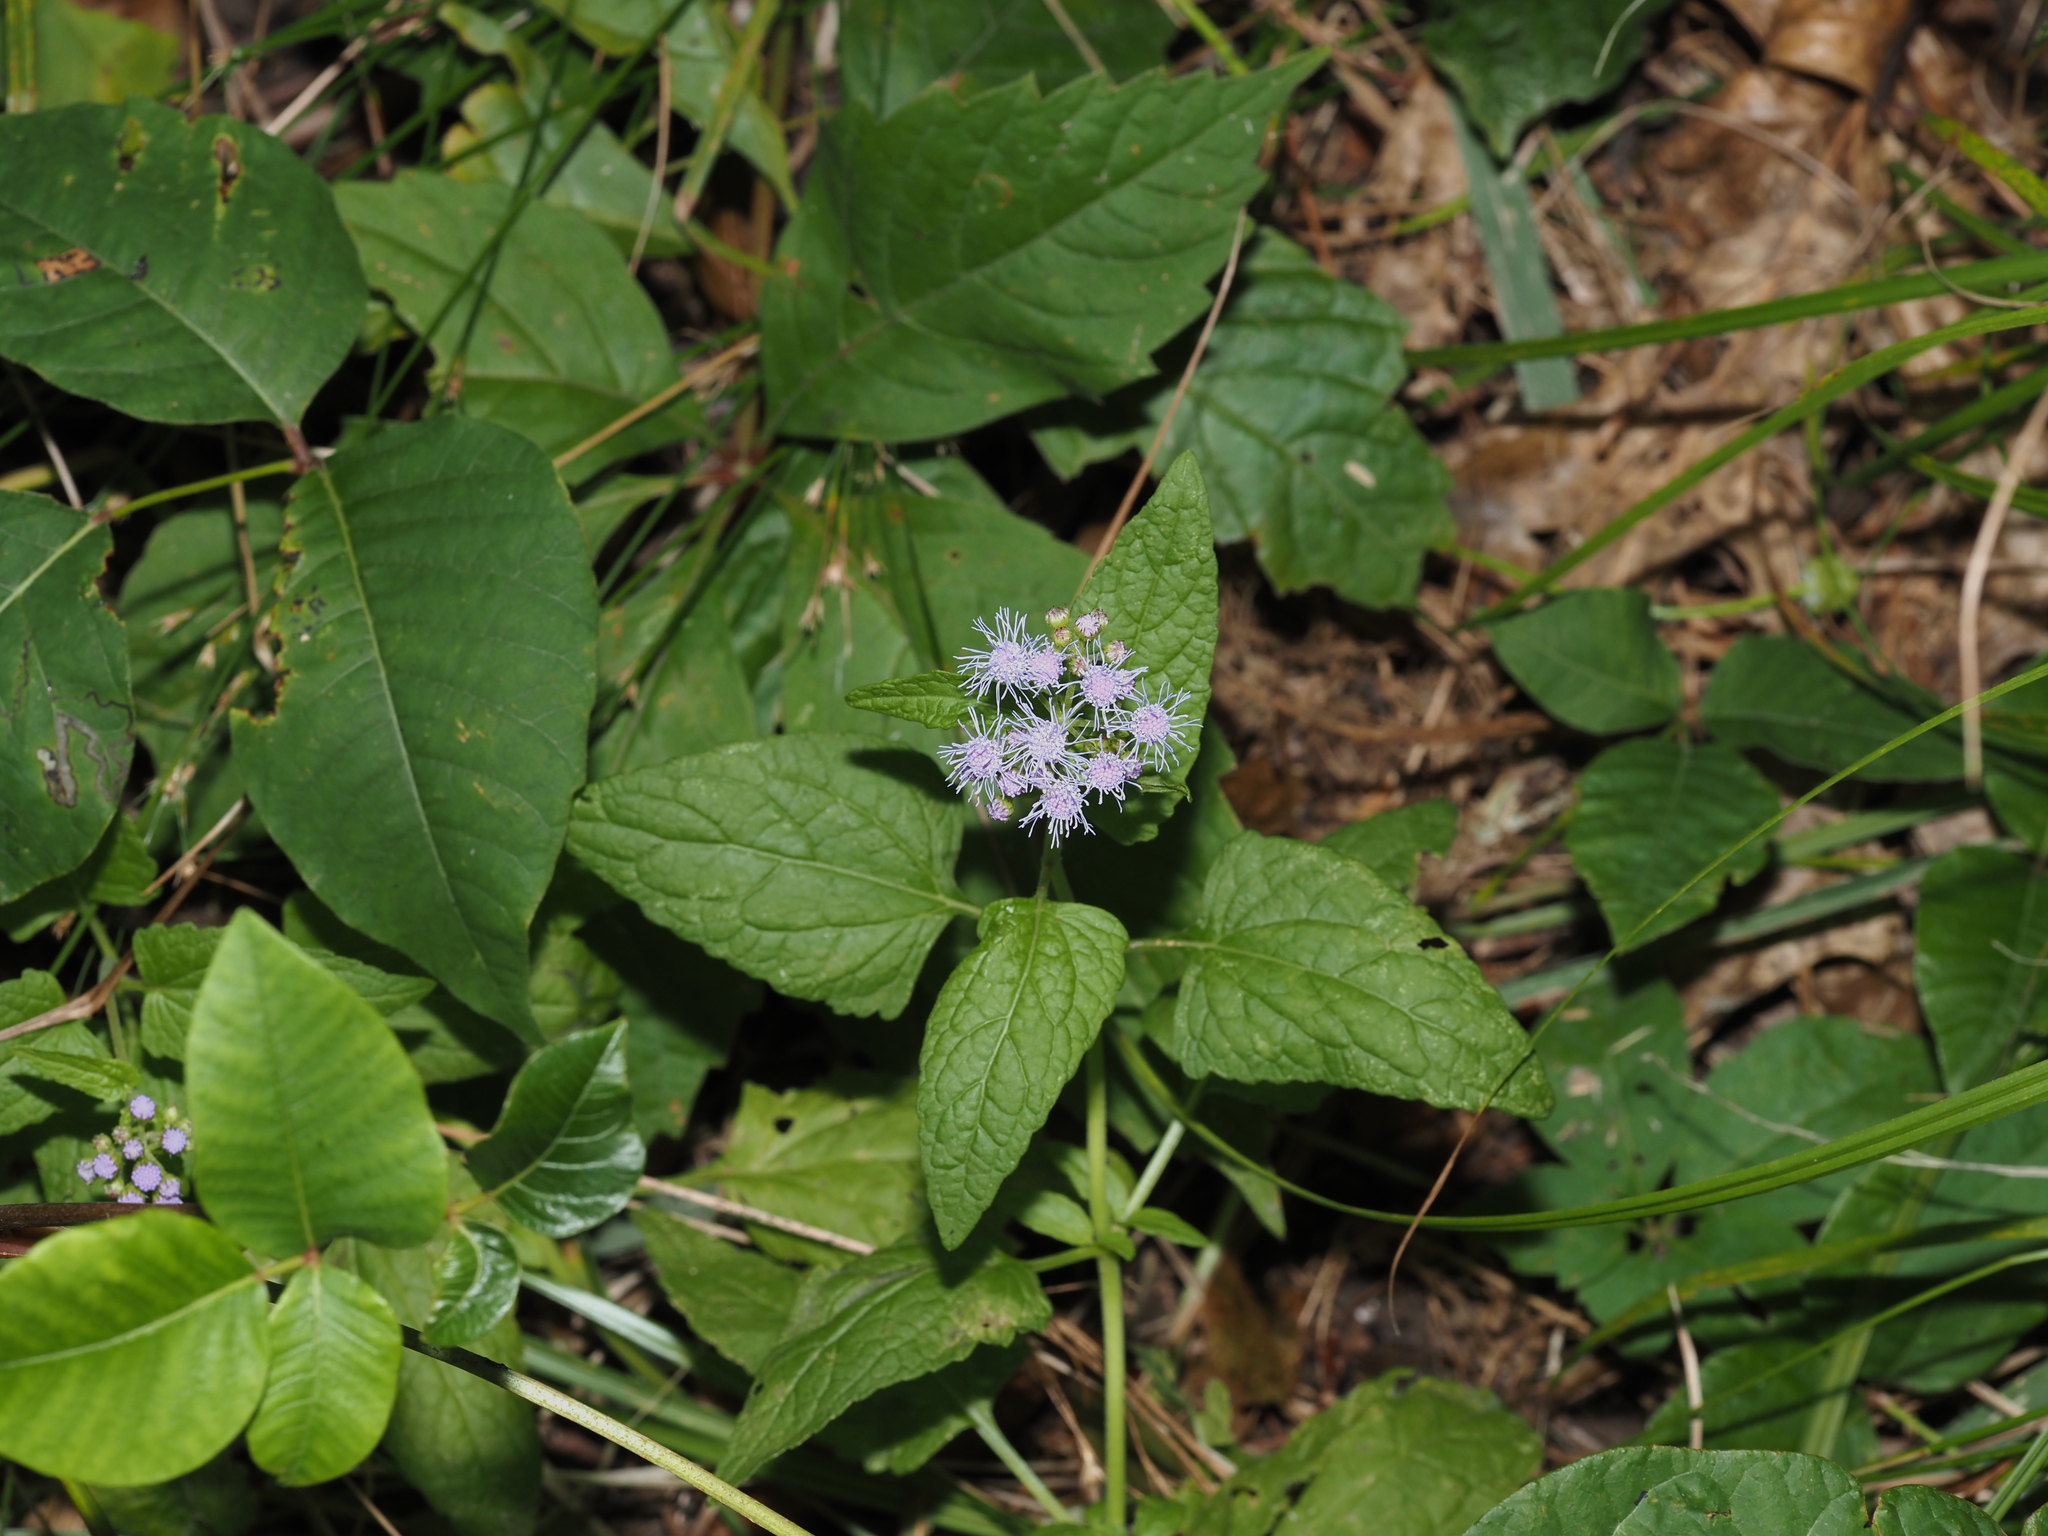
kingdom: Plantae
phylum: Tracheophyta
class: Magnoliopsida
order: Asterales
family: Asteraceae
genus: Conoclinium
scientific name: Conoclinium coelestinum
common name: Blue mistflower
